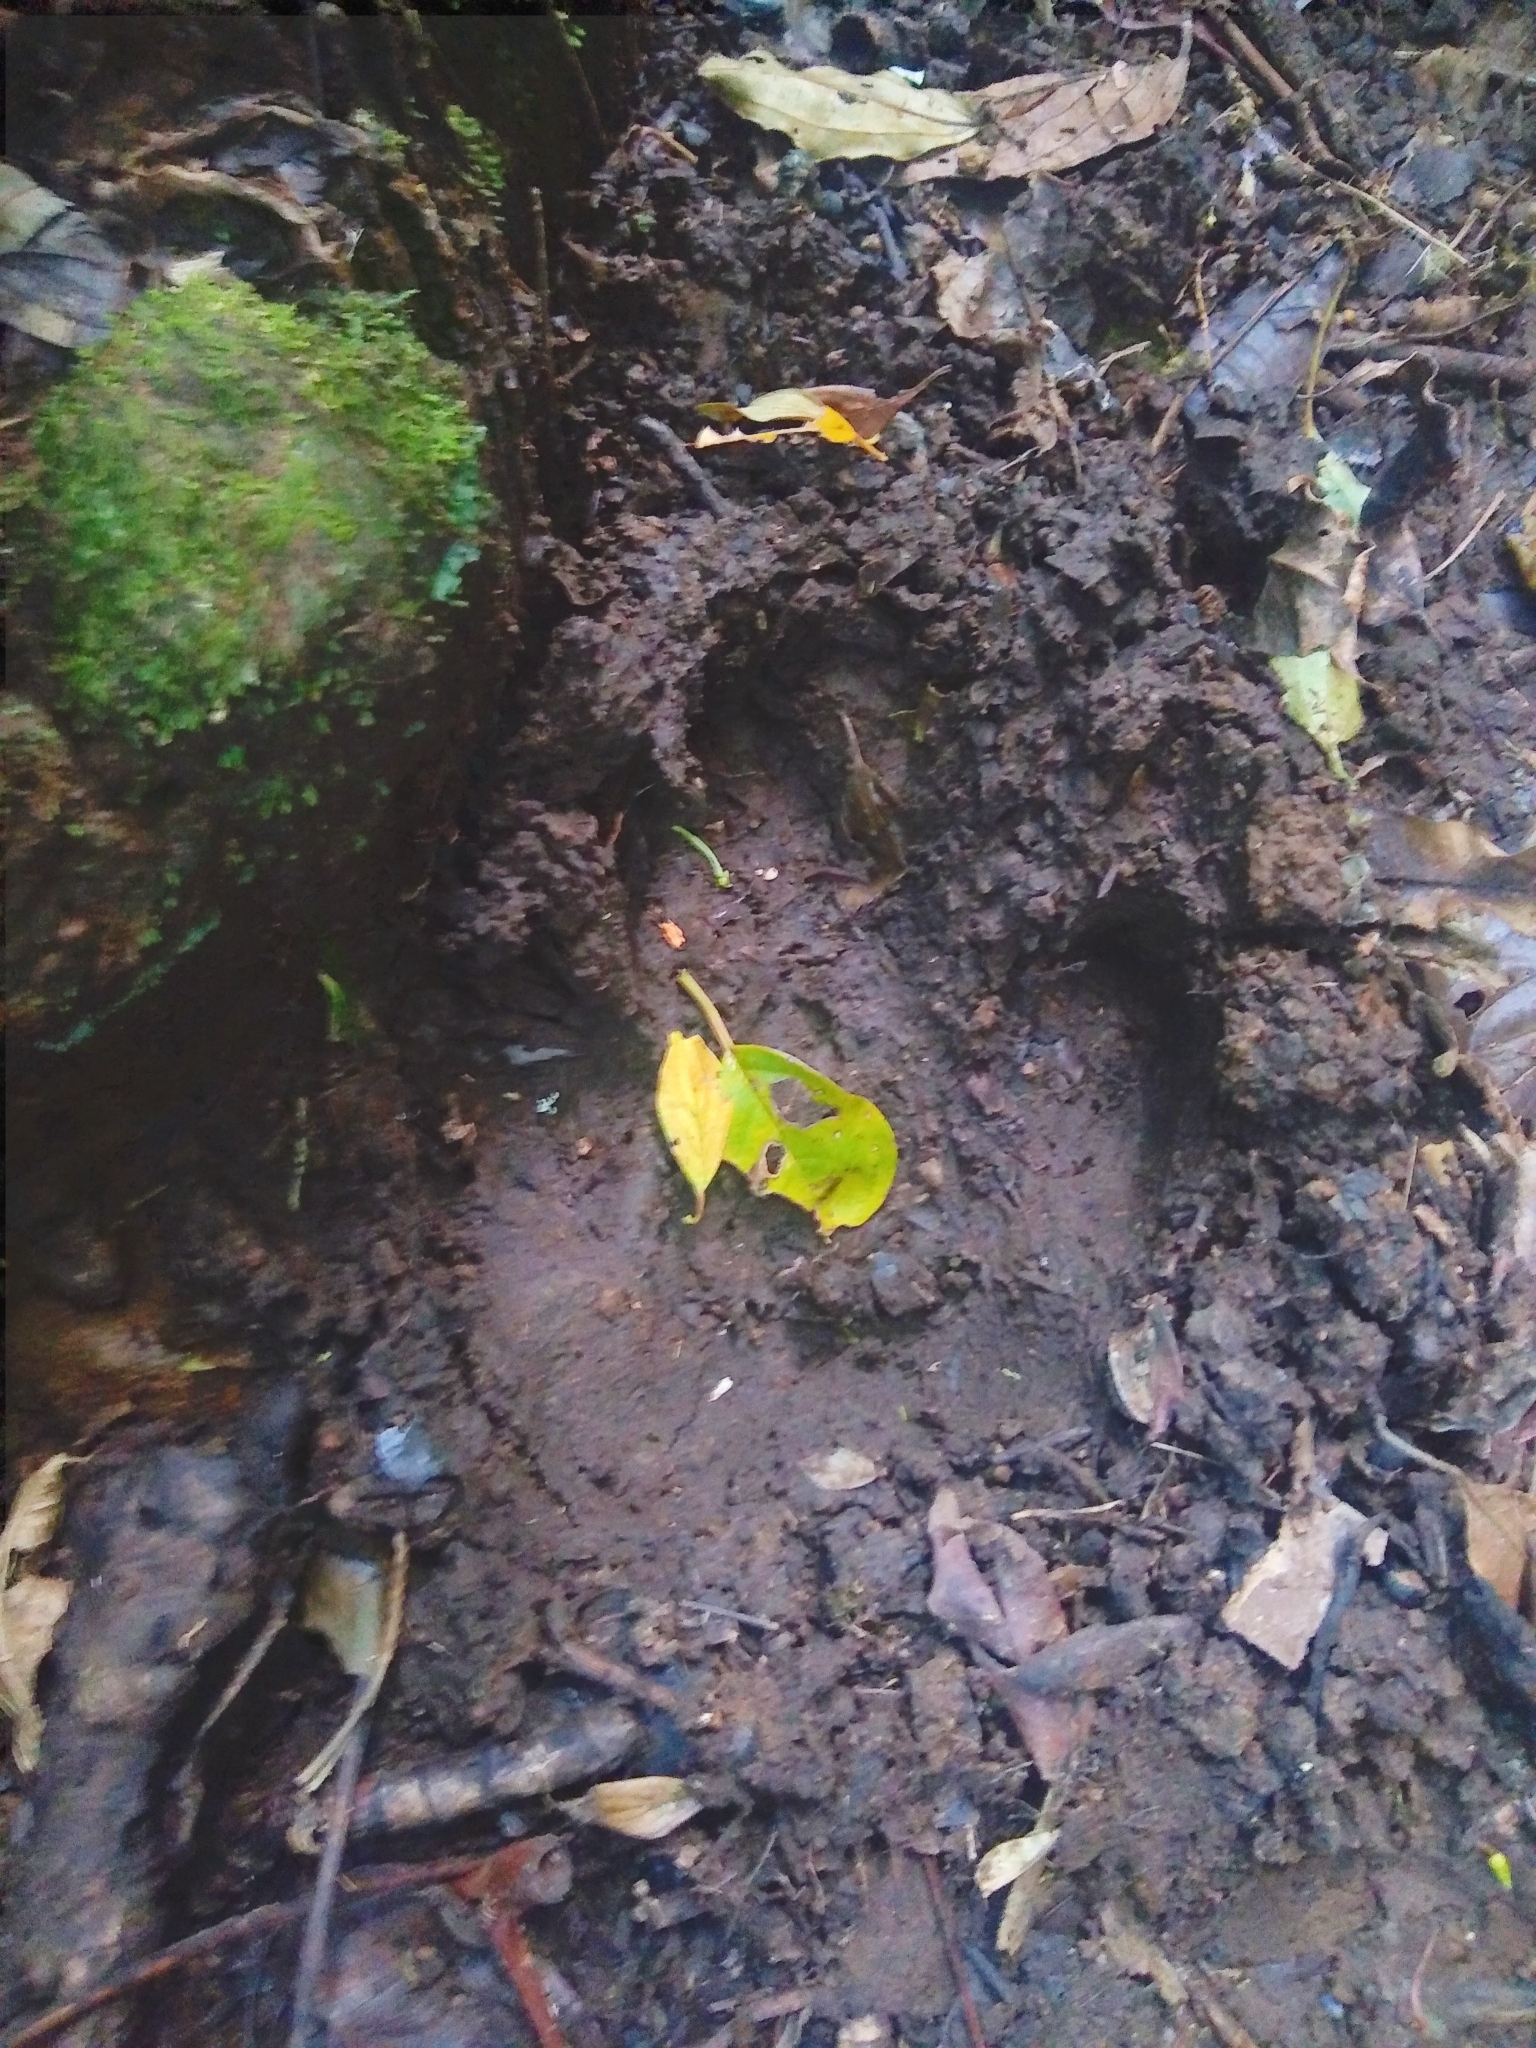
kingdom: Animalia
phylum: Chordata
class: Mammalia
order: Perissodactyla
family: Tapiridae
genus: Tapirella
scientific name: Tapirella bairdii
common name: Baird's tapir
